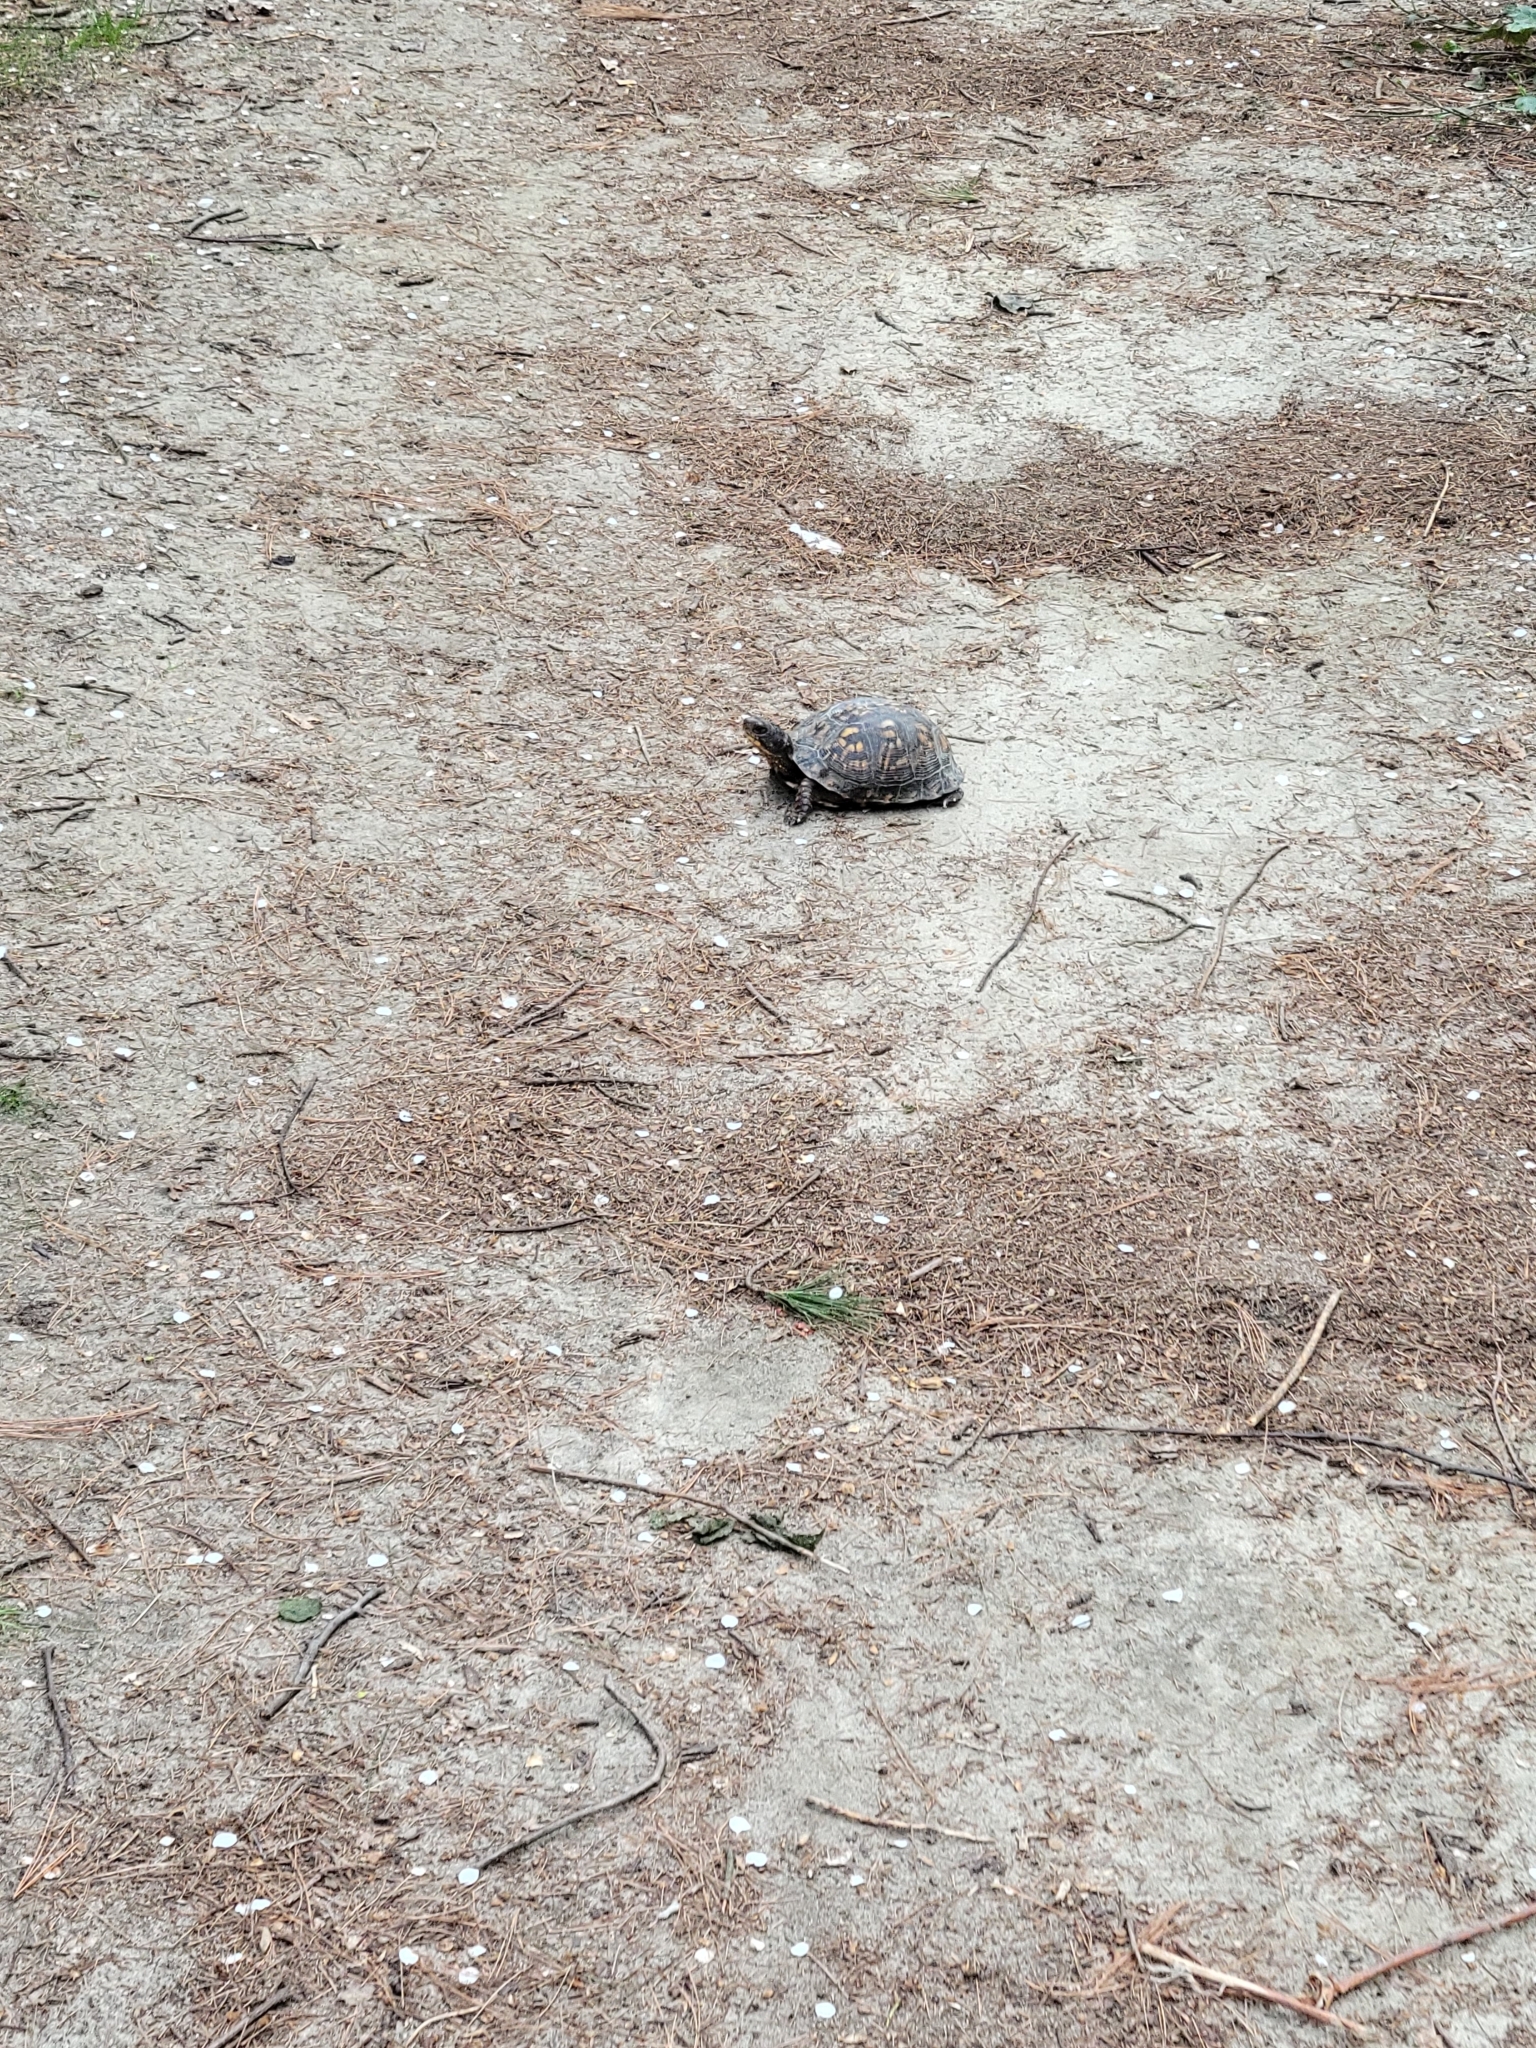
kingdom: Animalia
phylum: Chordata
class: Testudines
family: Emydidae
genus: Terrapene
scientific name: Terrapene carolina
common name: Common box turtle
